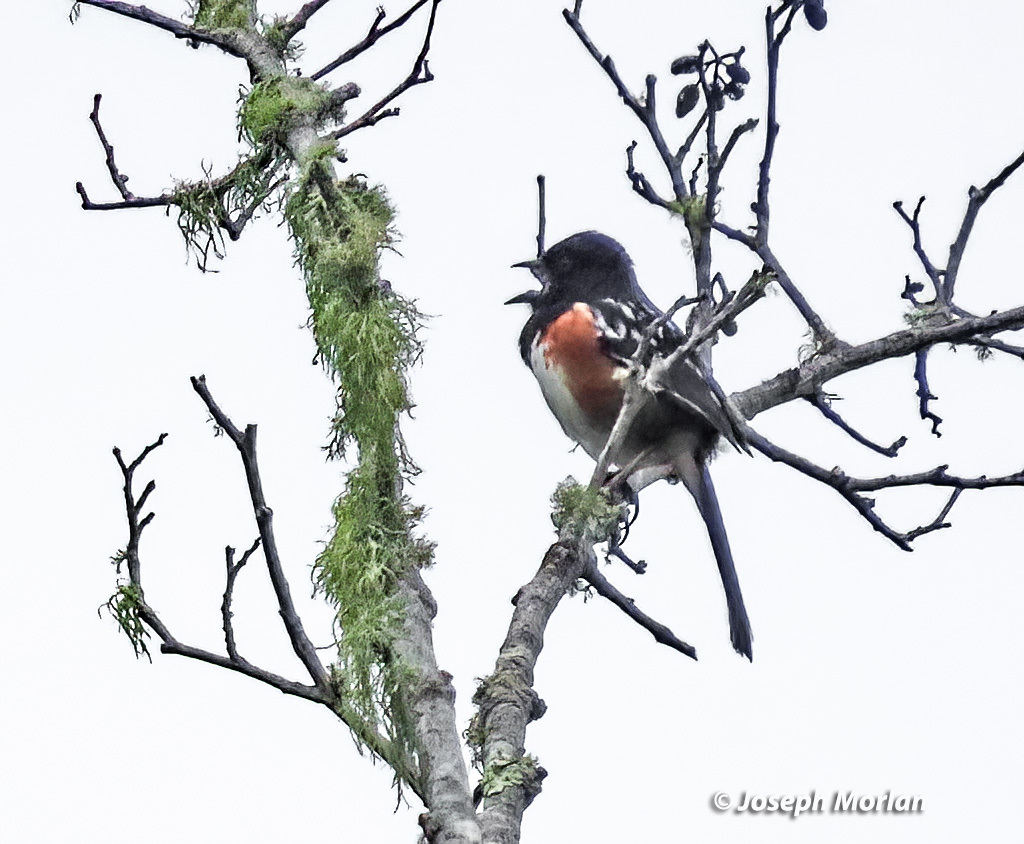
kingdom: Animalia
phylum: Chordata
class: Aves
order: Passeriformes
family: Passerellidae
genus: Pipilo
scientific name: Pipilo maculatus
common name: Spotted towhee
